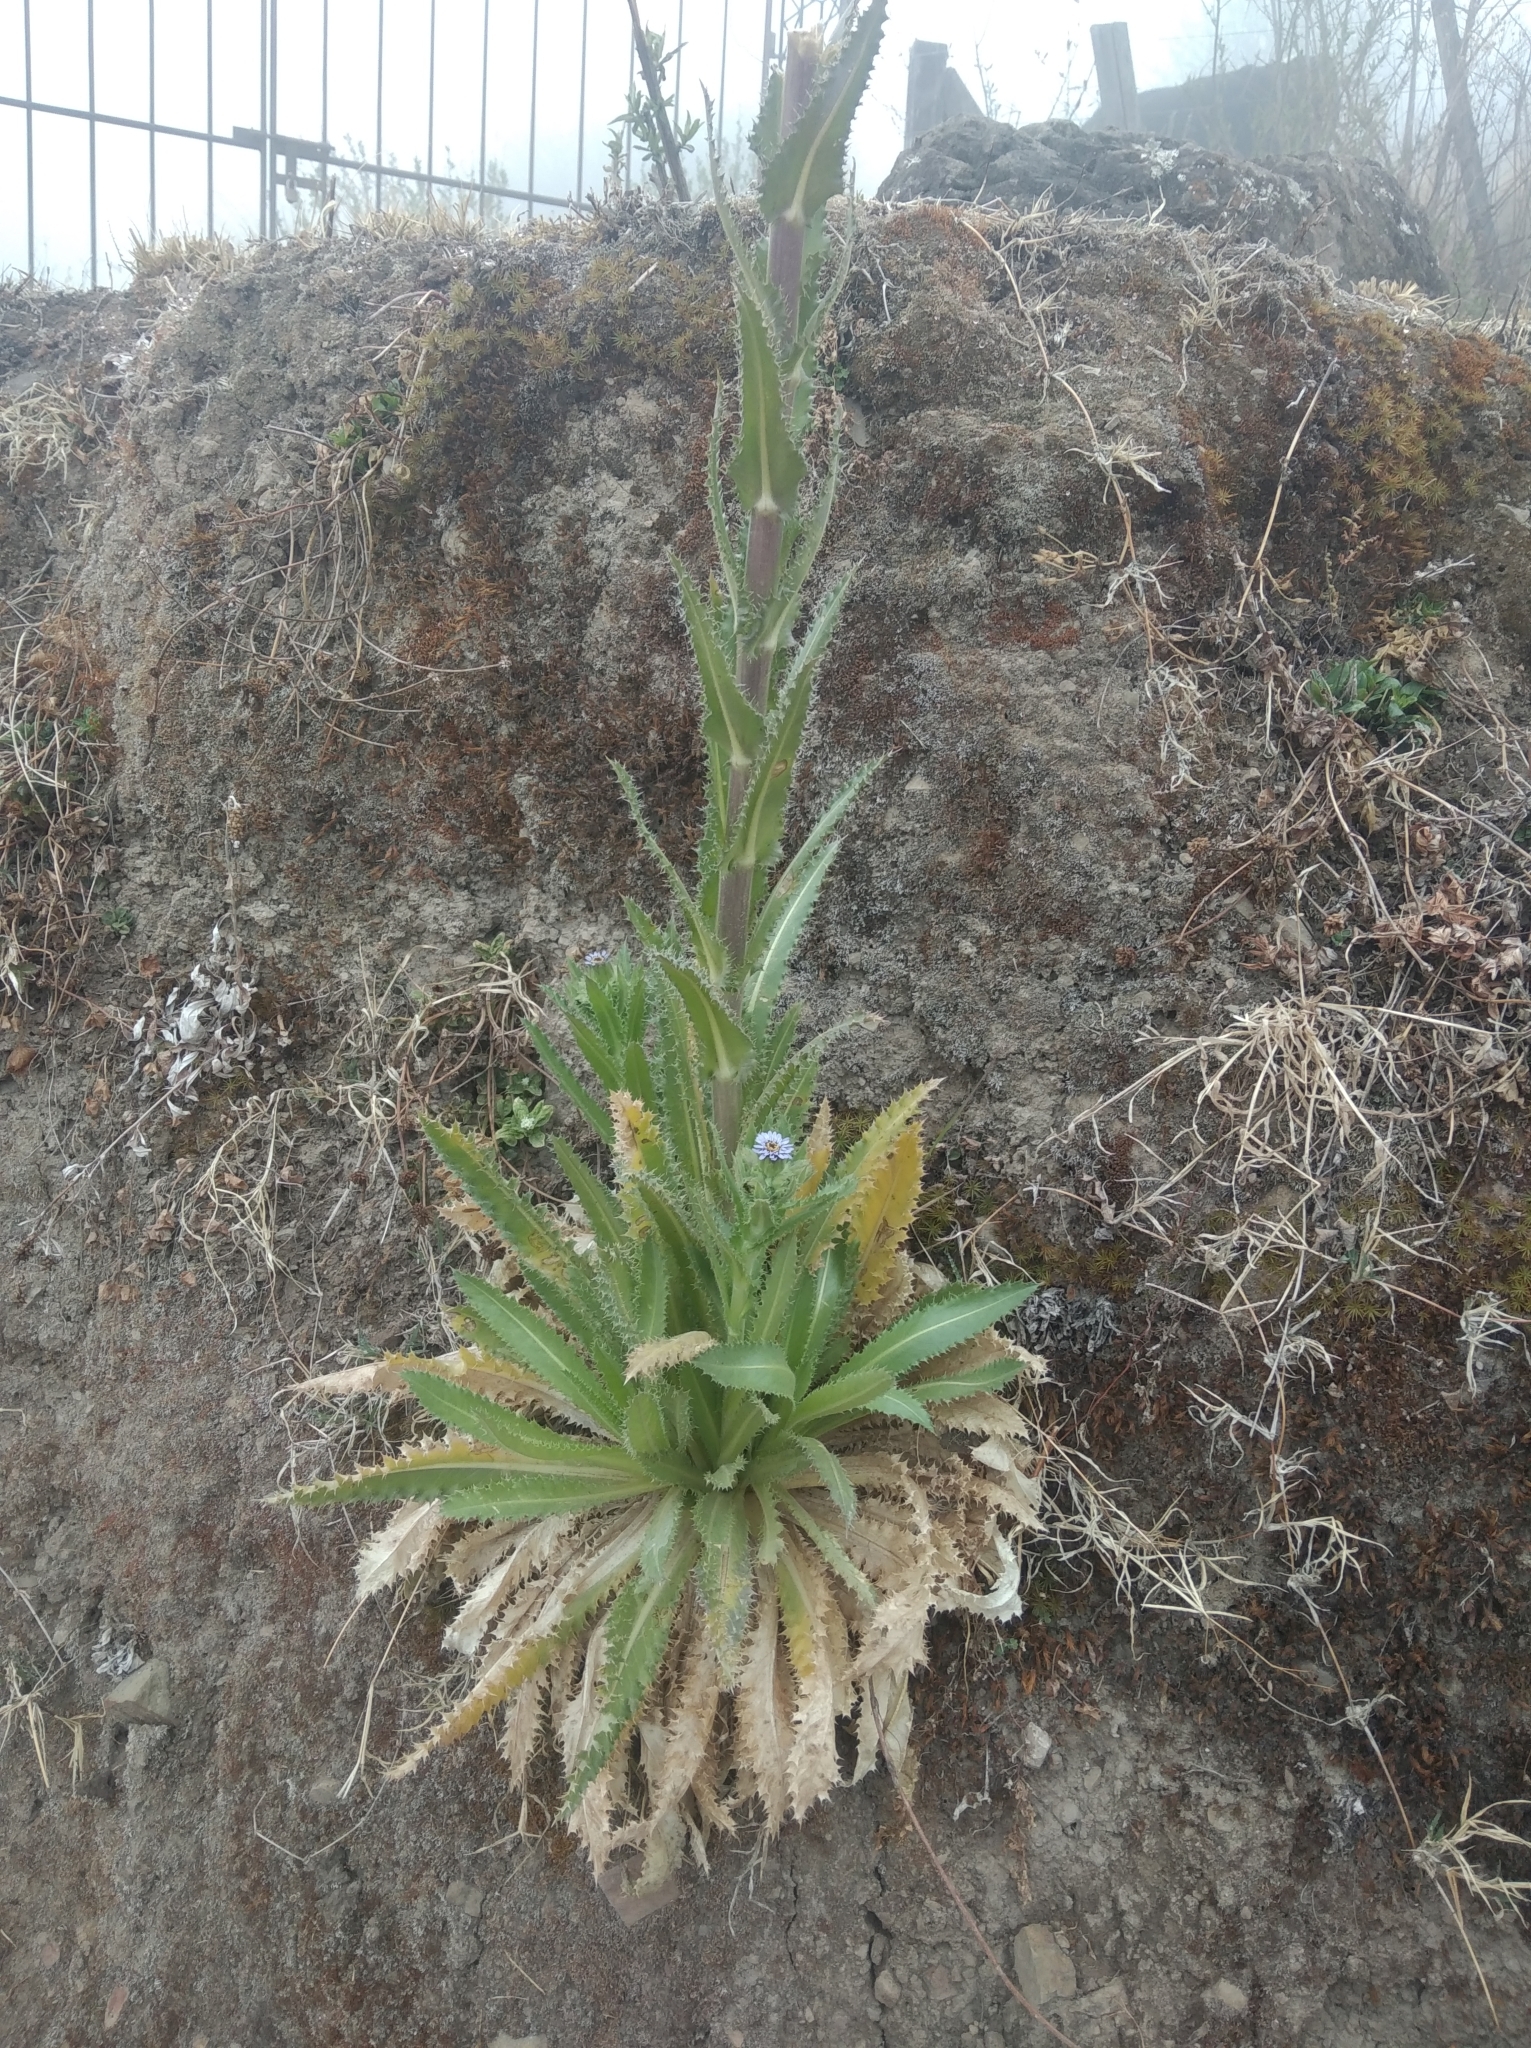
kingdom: Plantae
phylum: Tracheophyta
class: Magnoliopsida
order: Asterales
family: Asteraceae
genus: Perezia
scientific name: Perezia multiflora
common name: Perezia
